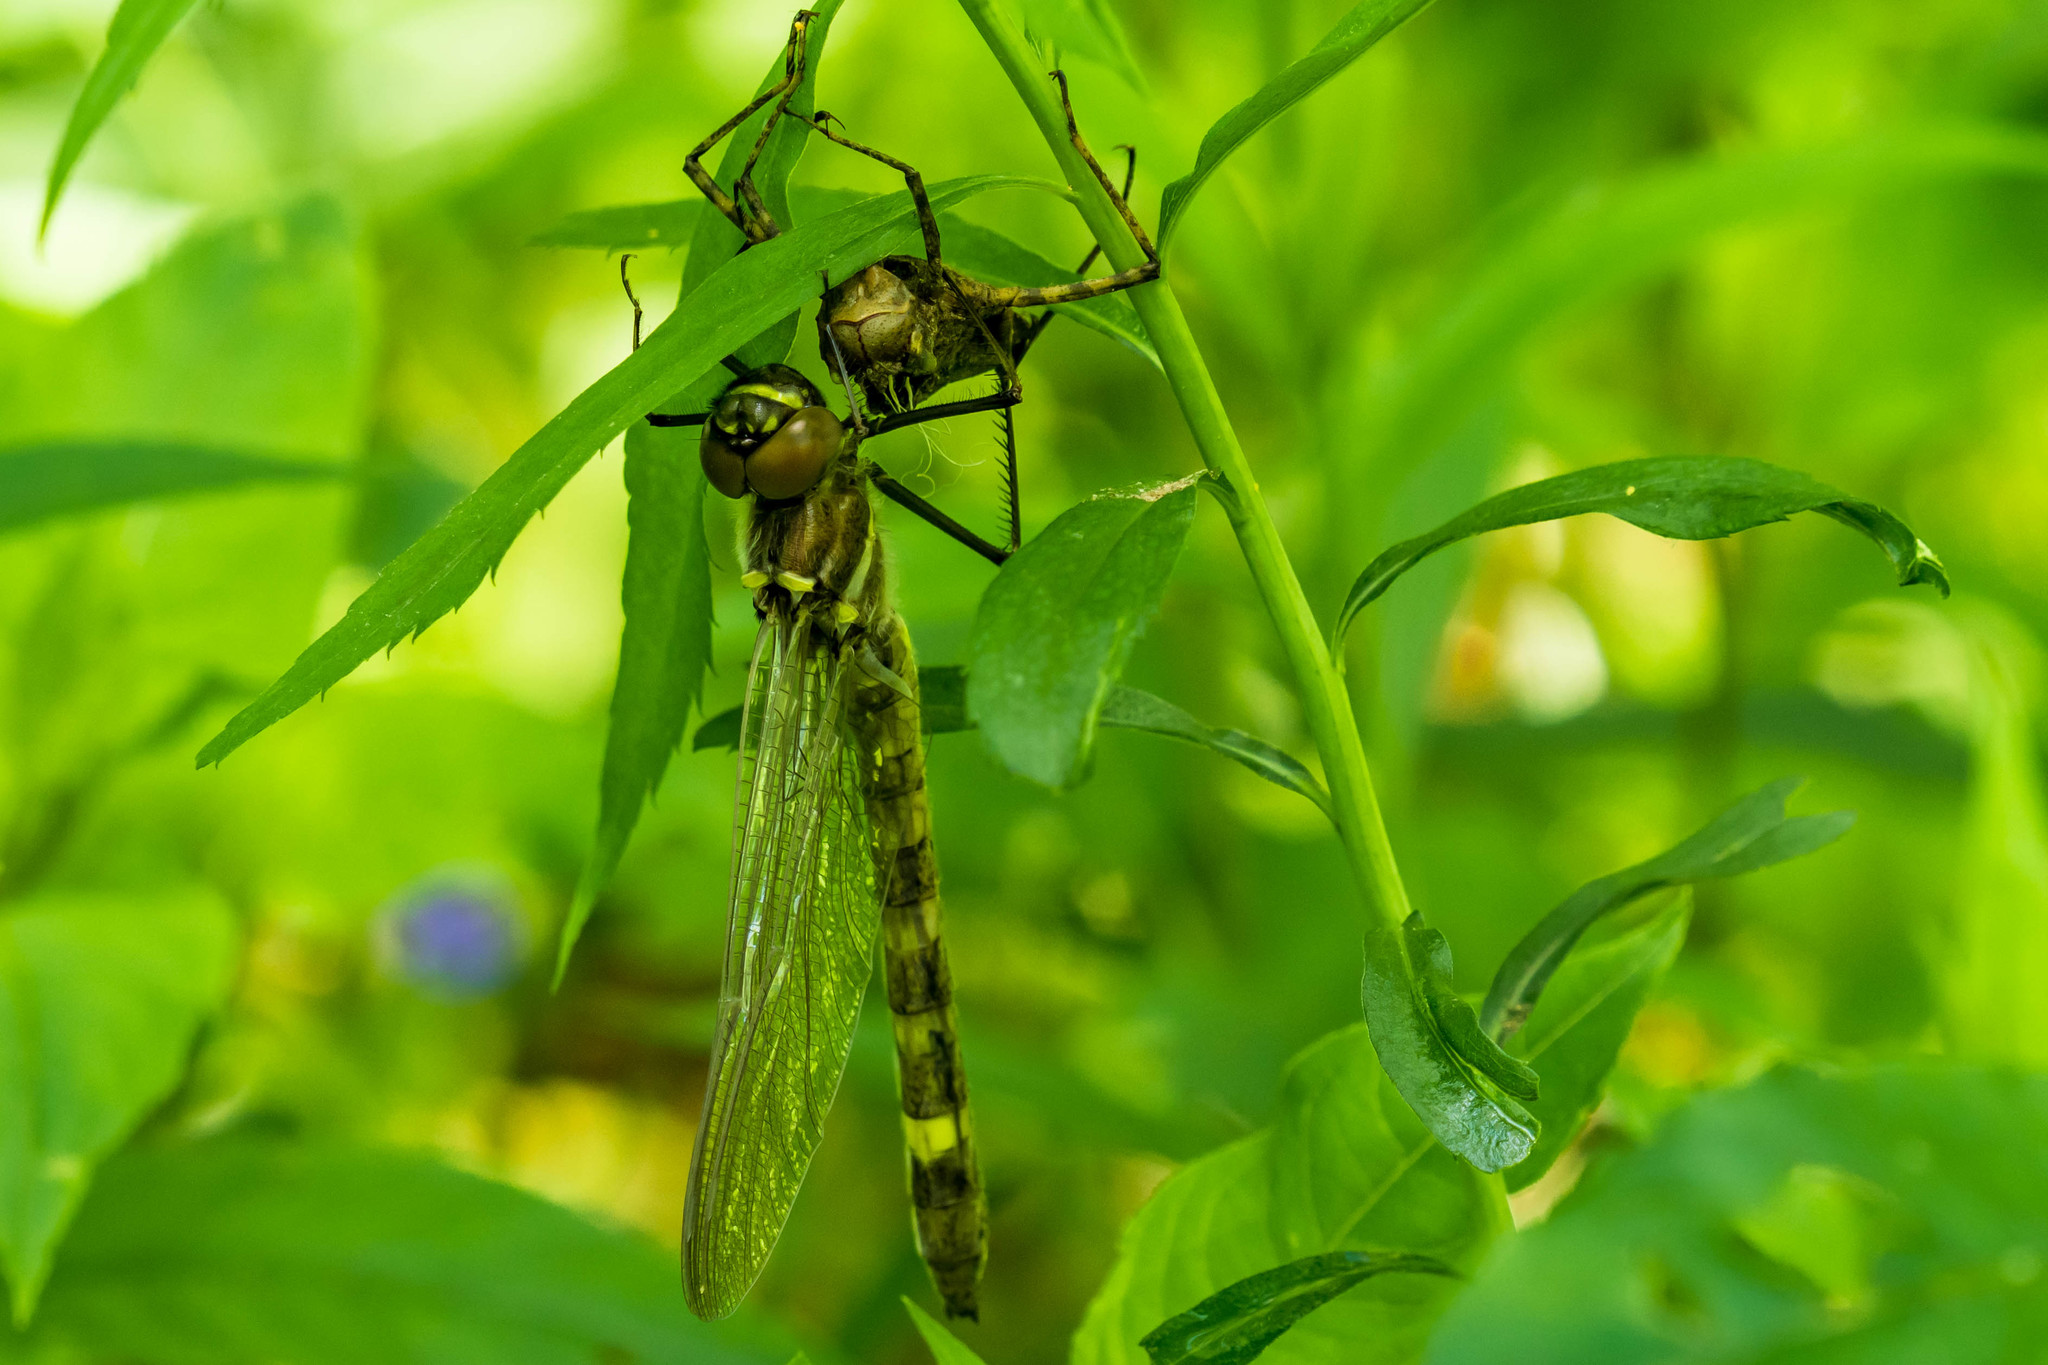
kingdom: Animalia
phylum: Arthropoda
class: Insecta
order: Odonata
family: Macromiidae
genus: Macromia
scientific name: Macromia illinoiensis
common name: Swift river cruiser
